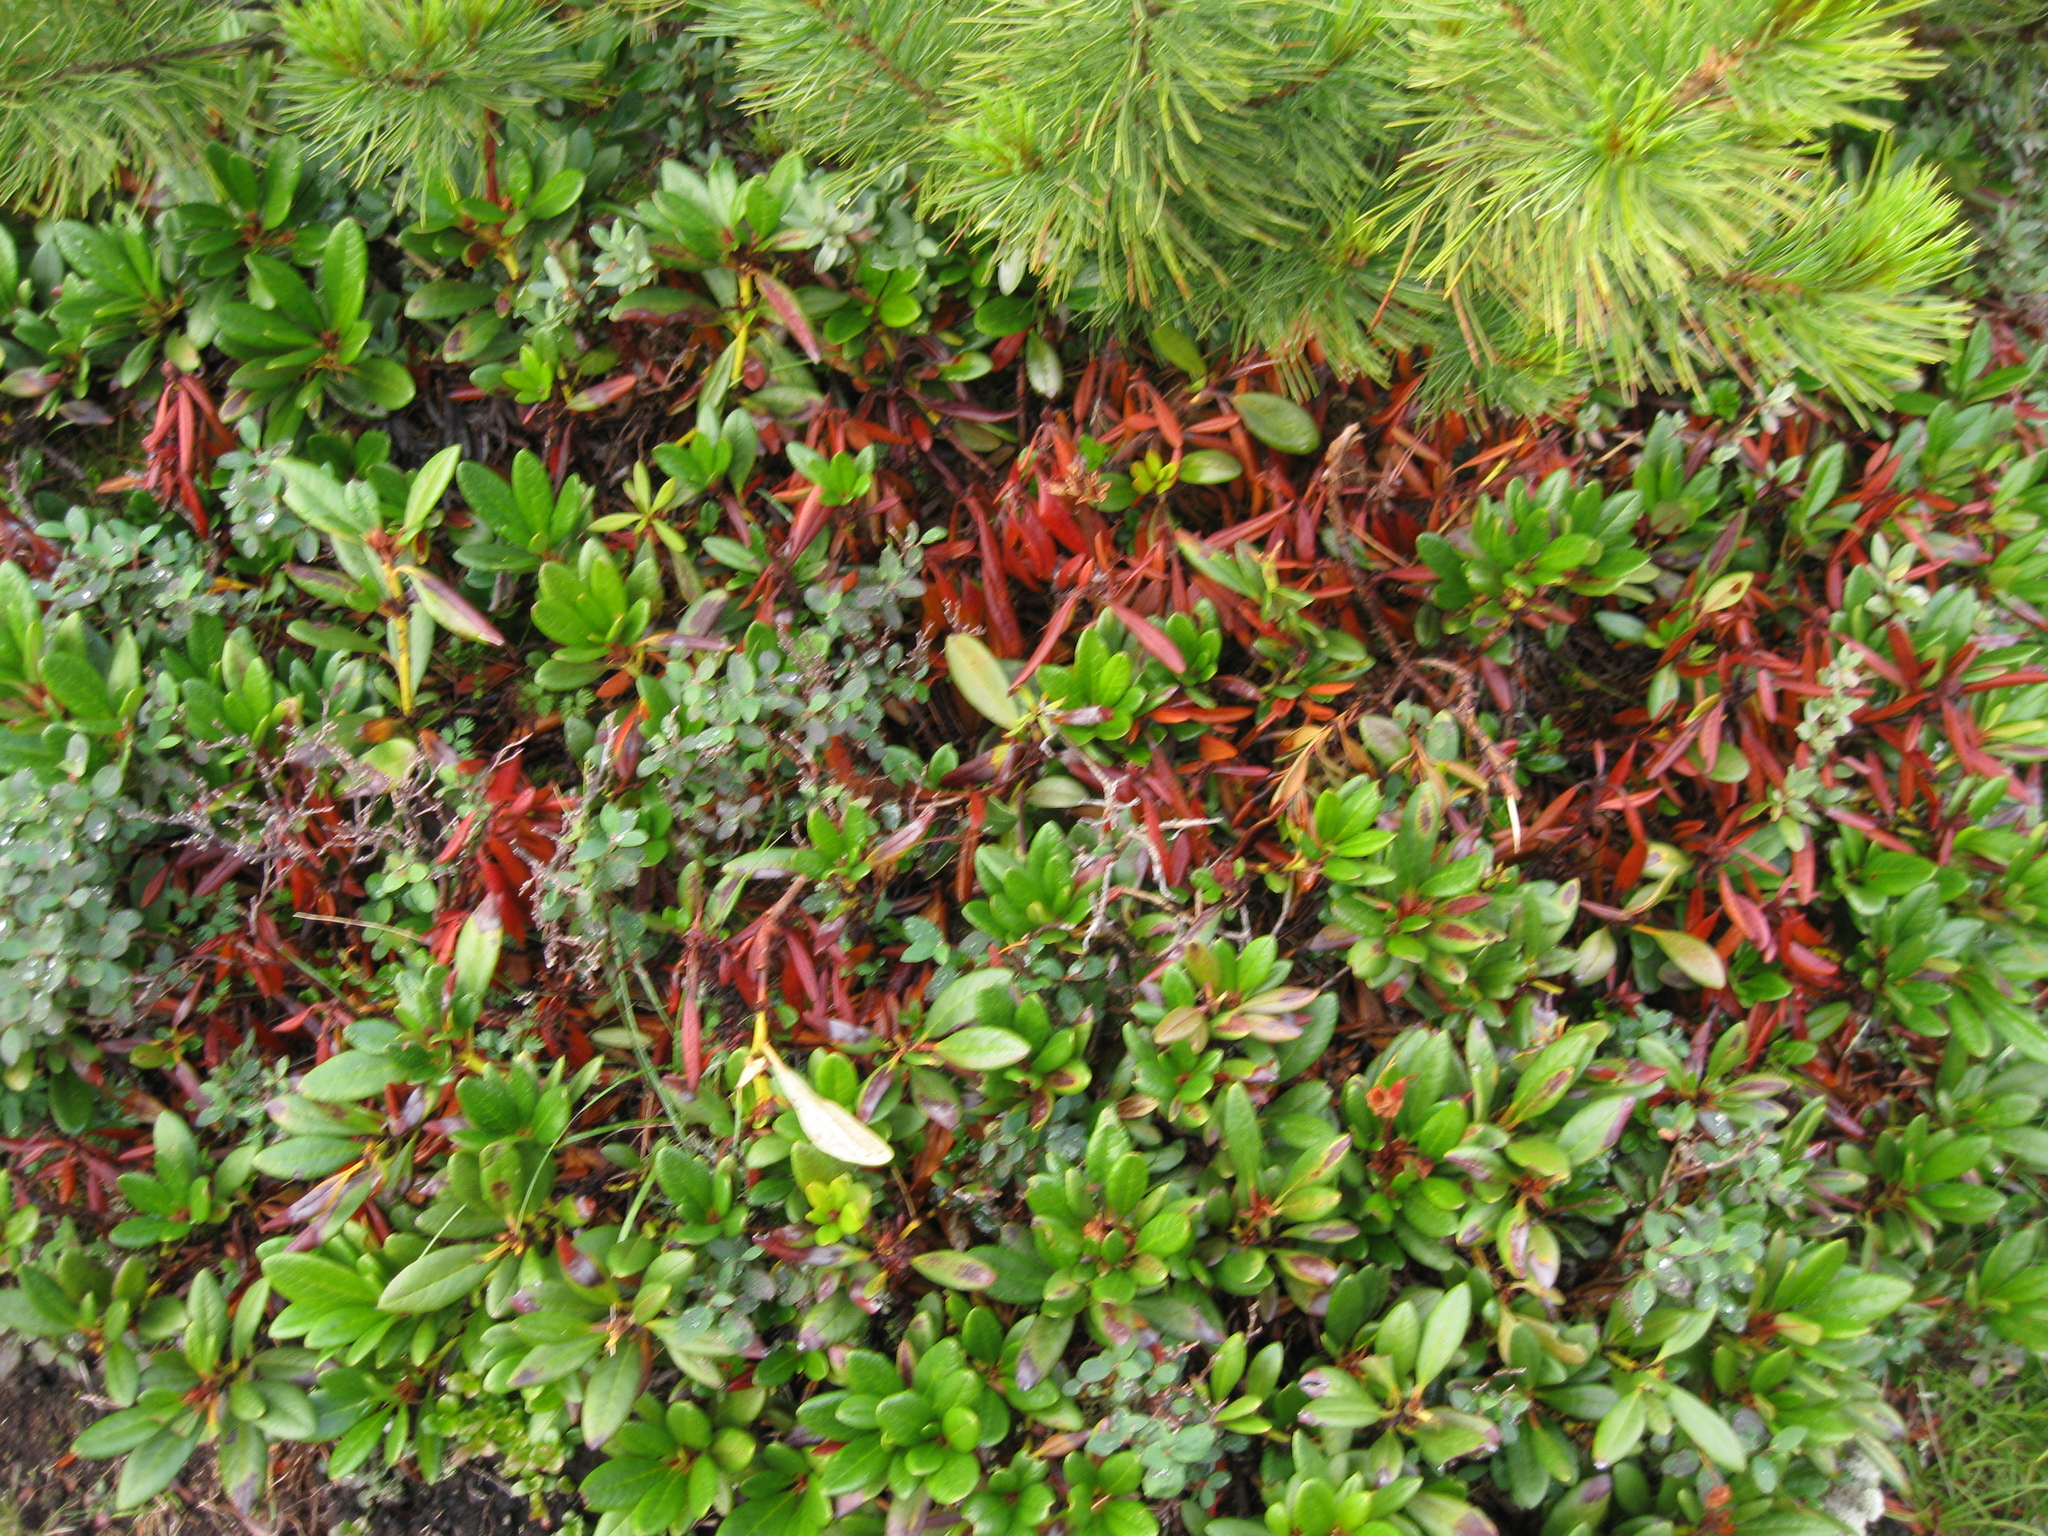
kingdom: Plantae
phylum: Tracheophyta
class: Magnoliopsida
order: Ericales
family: Ericaceae
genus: Rhododendron
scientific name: Rhododendron aureum
